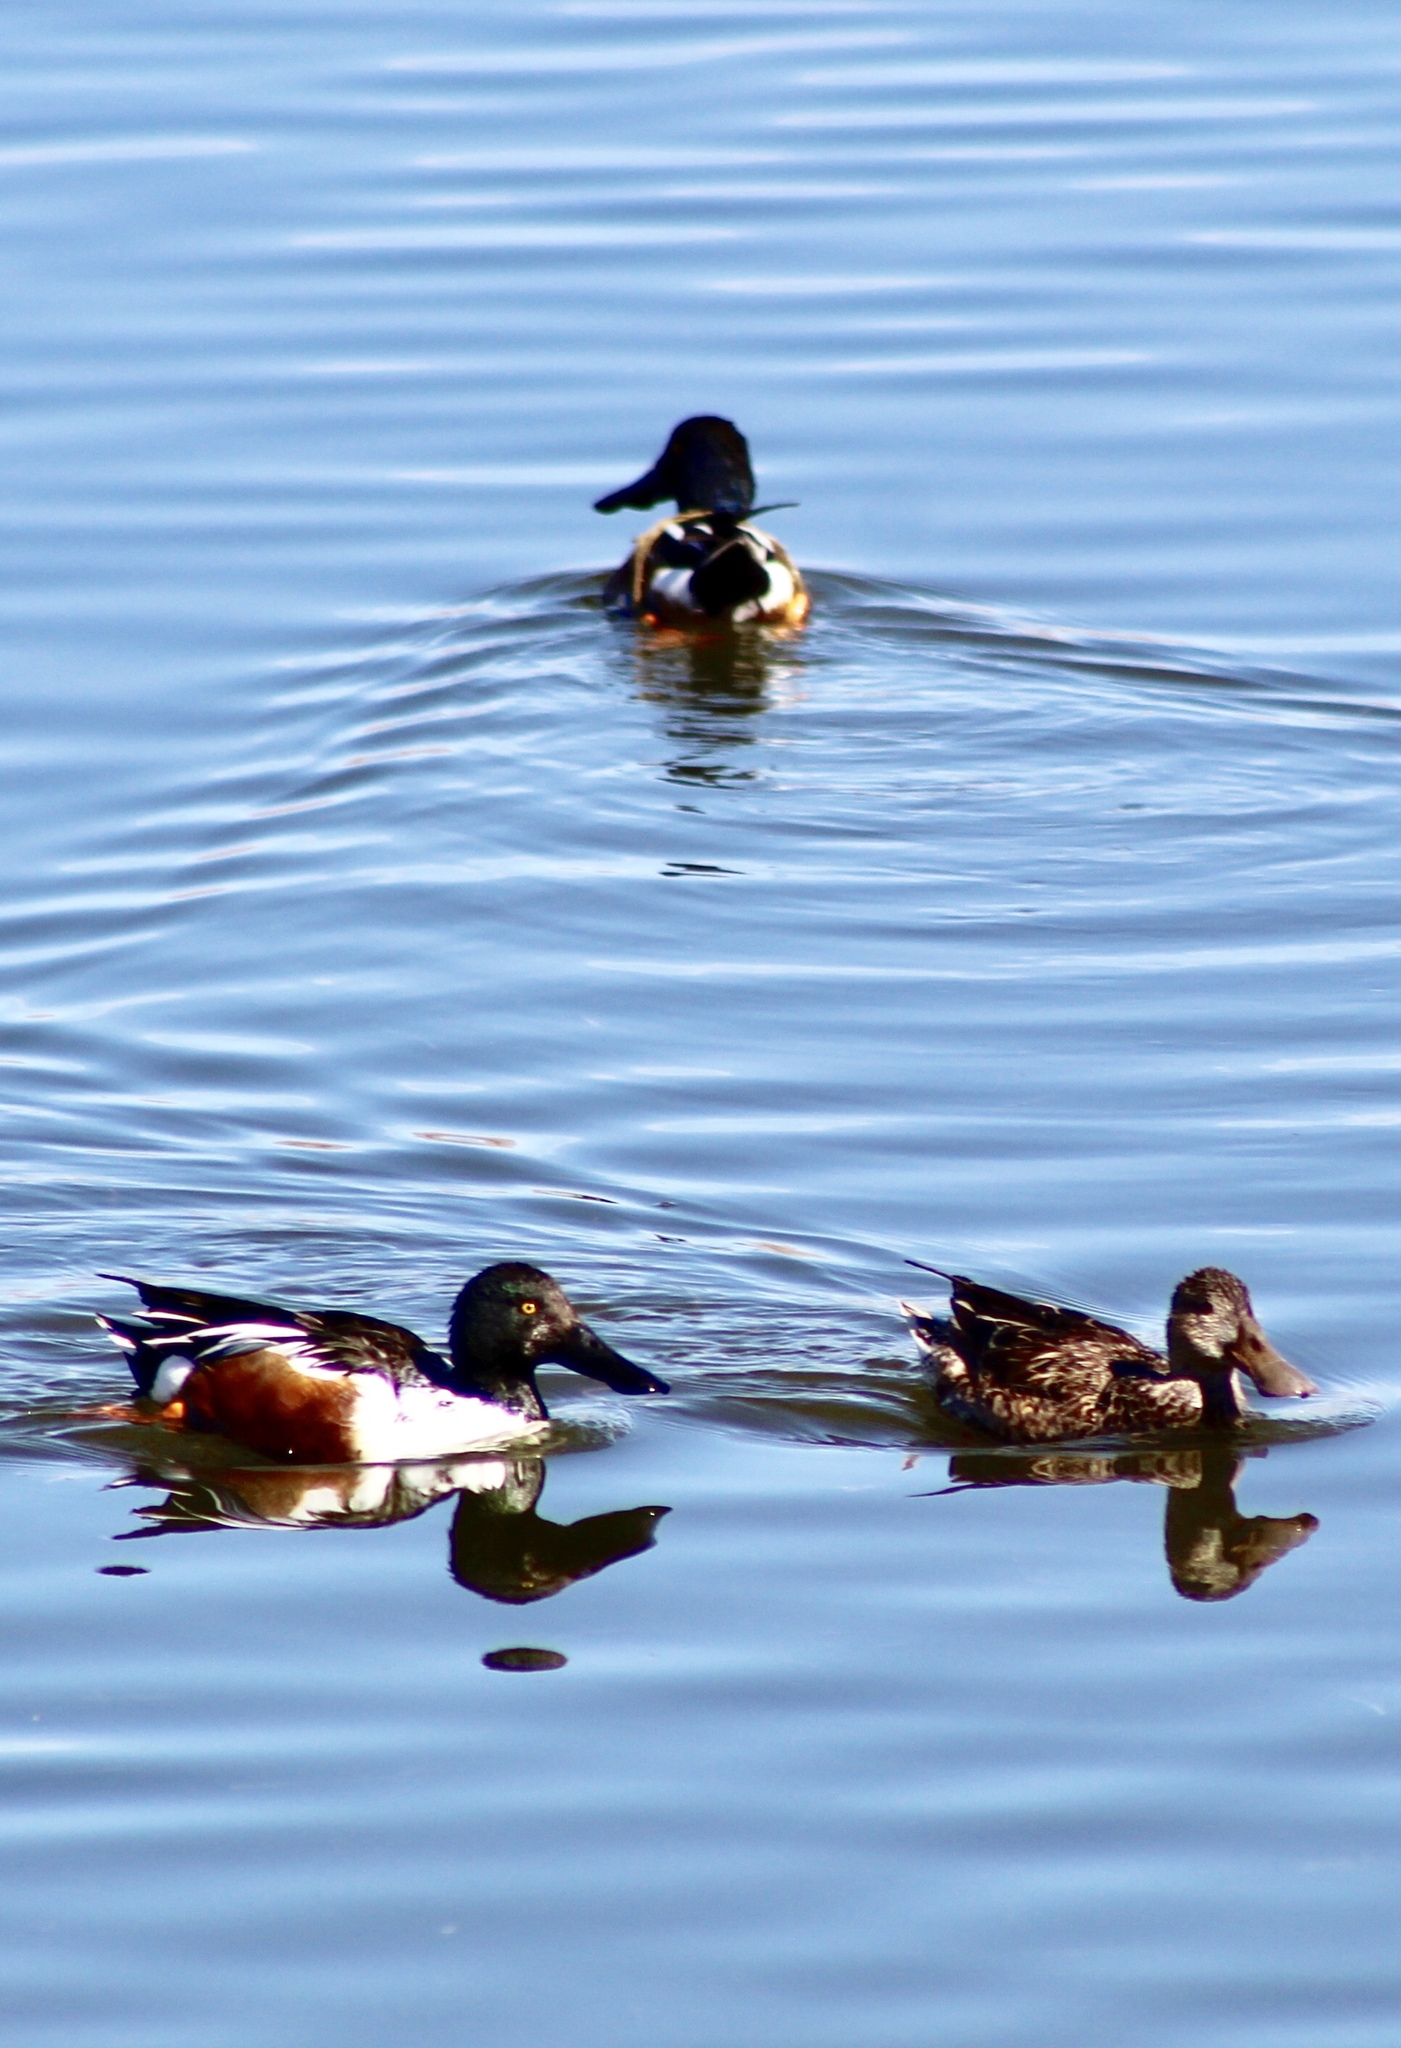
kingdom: Animalia
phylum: Chordata
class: Aves
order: Anseriformes
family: Anatidae
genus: Spatula
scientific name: Spatula clypeata
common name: Northern shoveler
